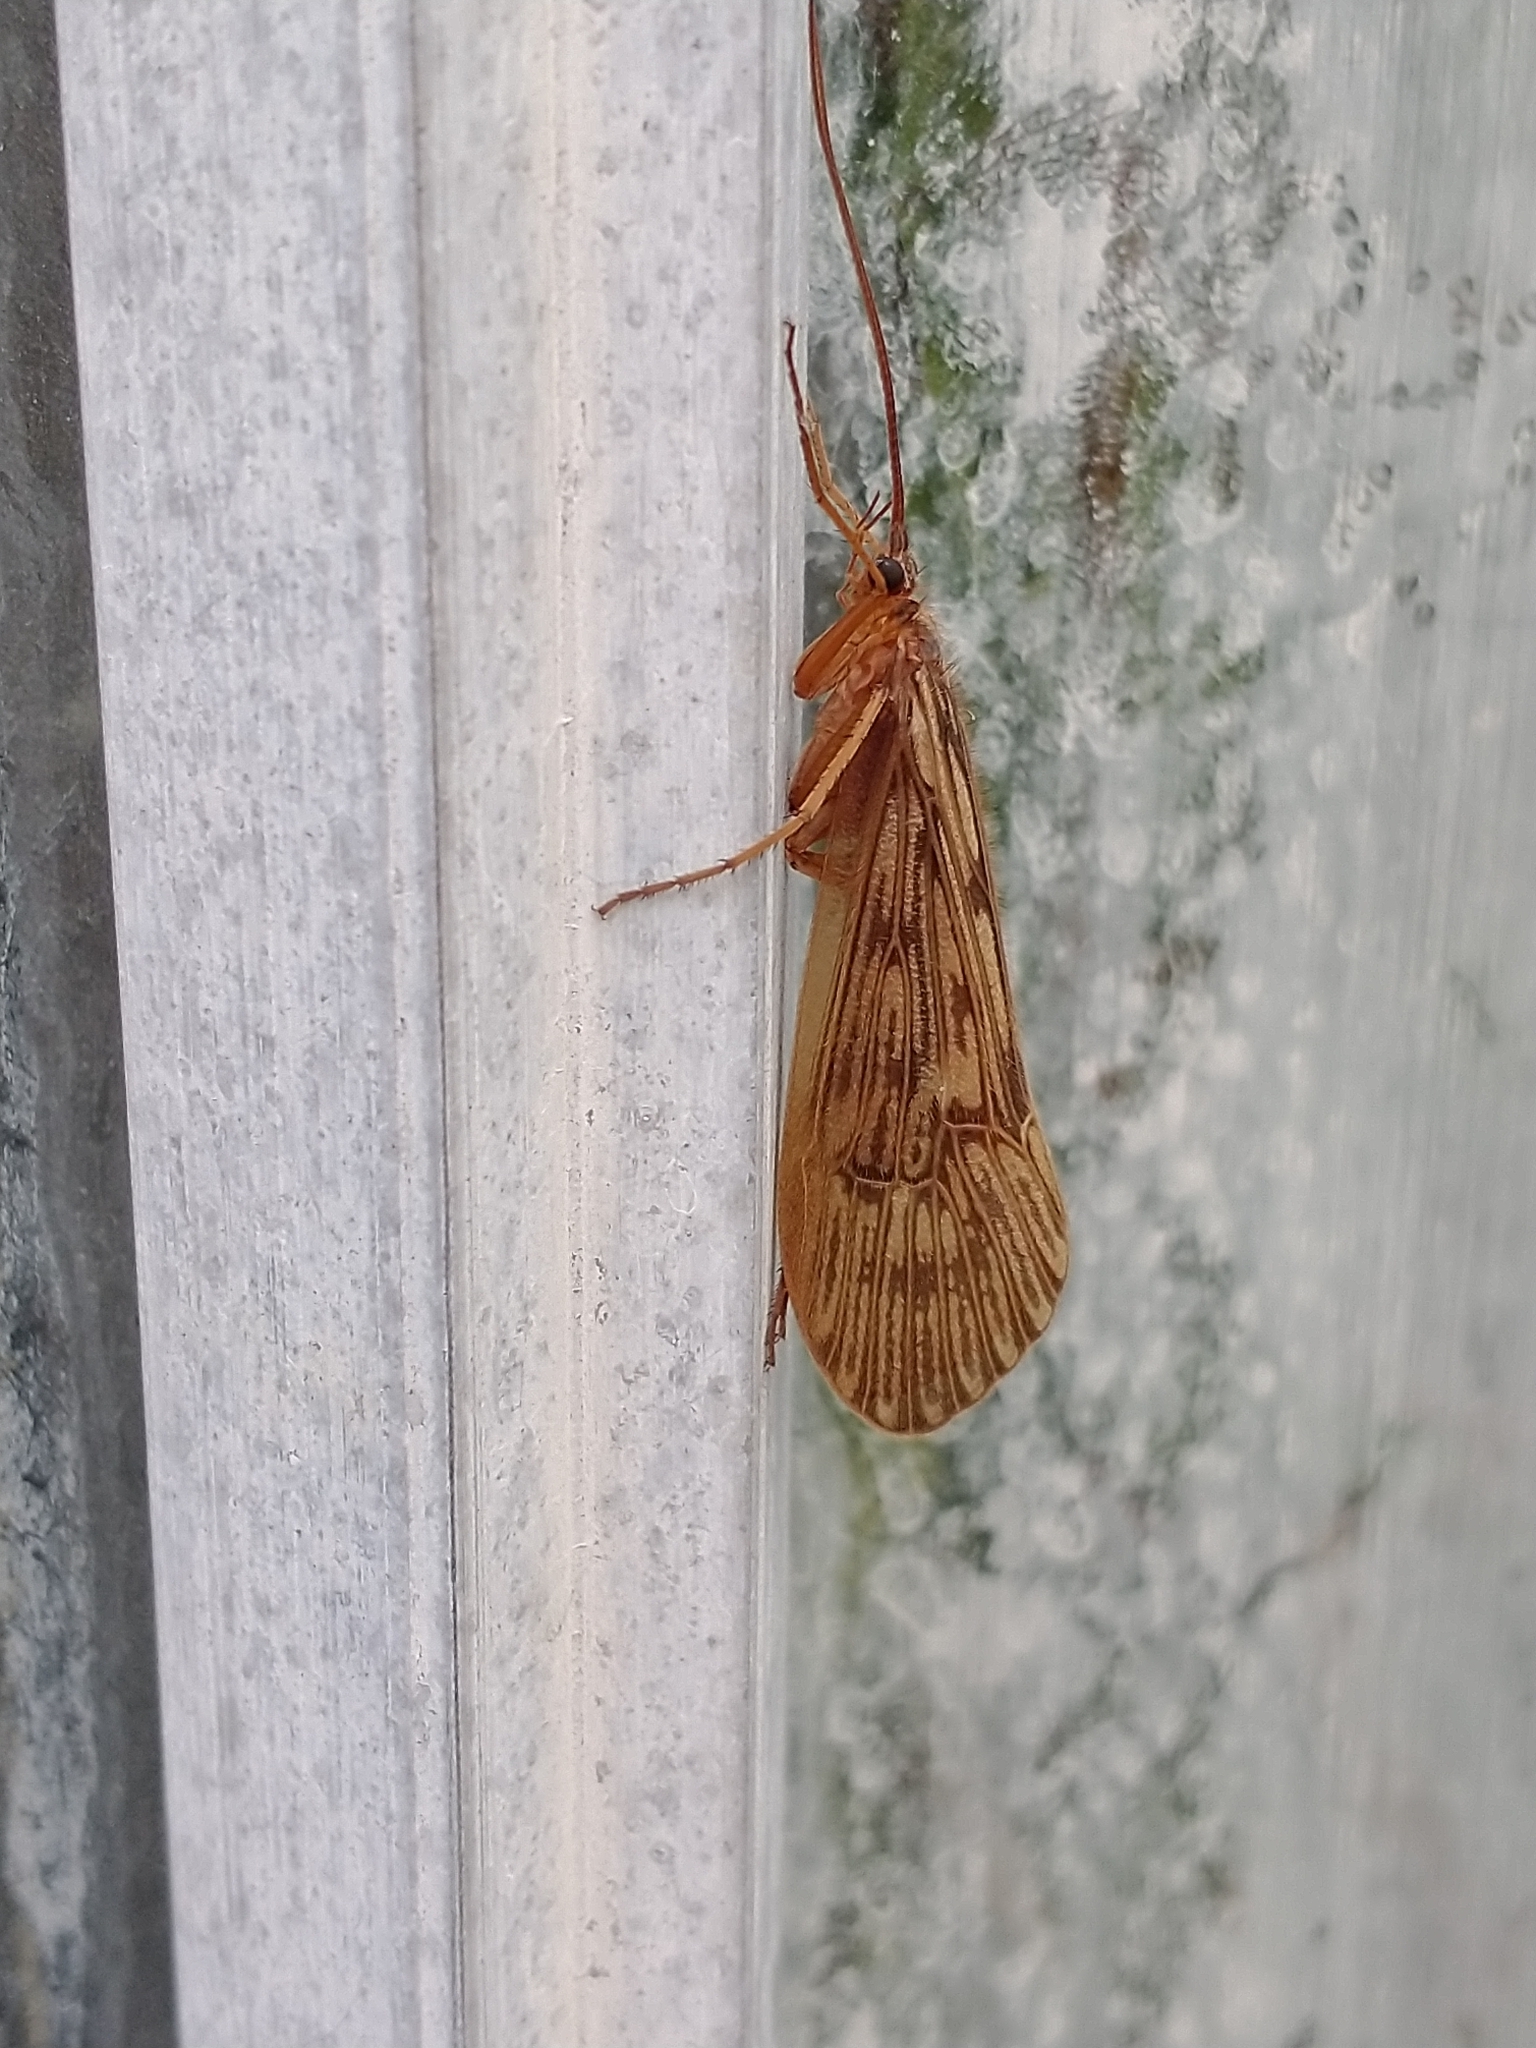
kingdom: Animalia
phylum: Arthropoda
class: Insecta
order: Trichoptera
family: Limnephilidae
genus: Halesus
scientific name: Halesus radiatus
